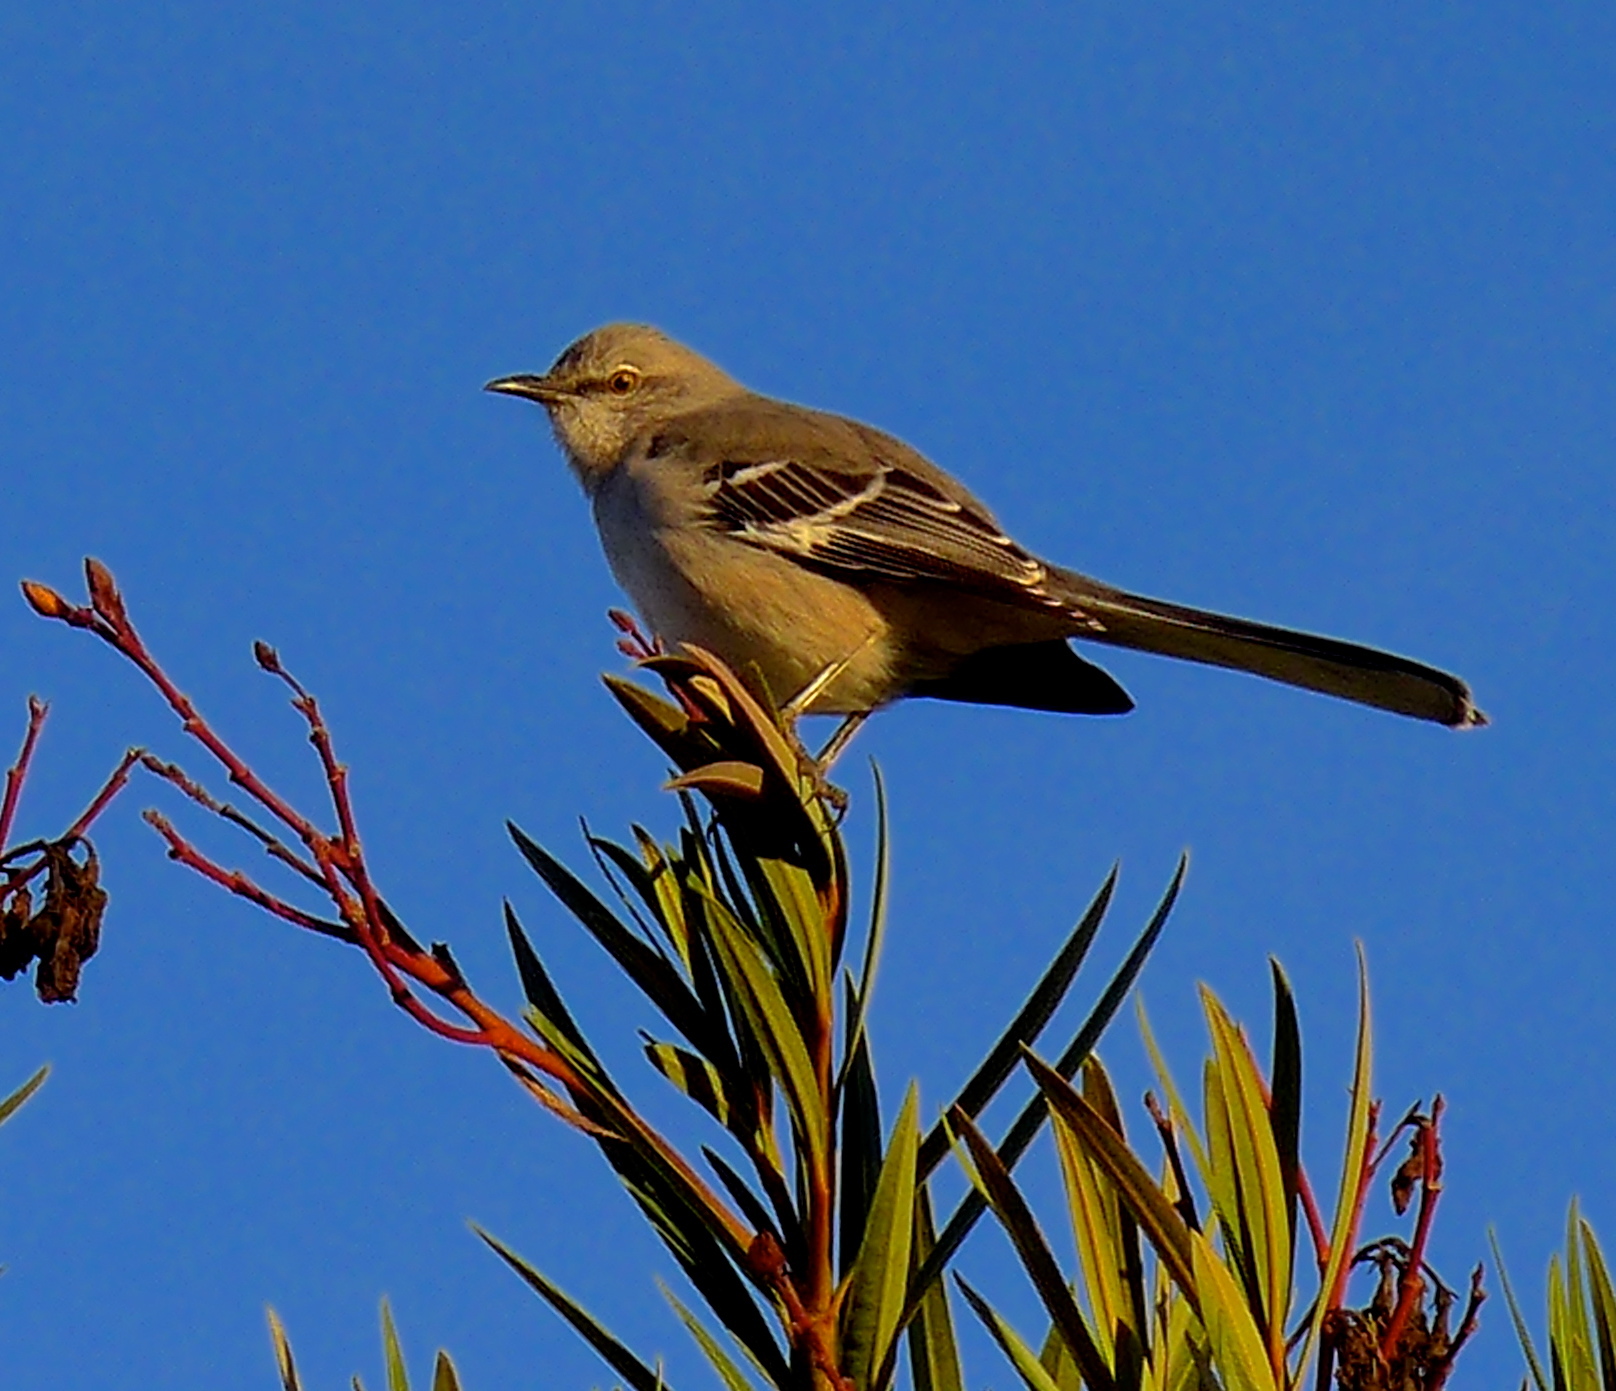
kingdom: Animalia
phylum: Chordata
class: Aves
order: Passeriformes
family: Mimidae
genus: Mimus
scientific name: Mimus polyglottos
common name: Northern mockingbird
